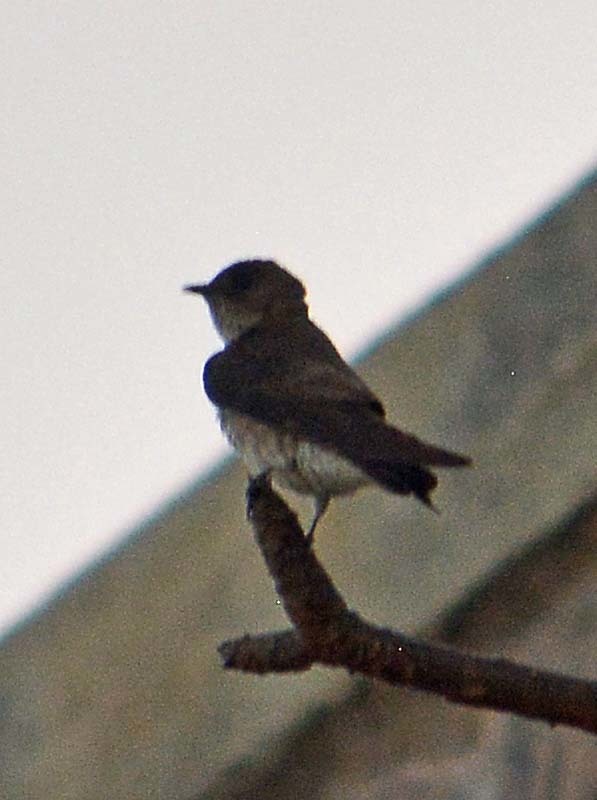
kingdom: Animalia
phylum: Chordata
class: Aves
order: Passeriformes
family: Hirundinidae
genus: Progne
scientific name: Progne chalybea
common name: Grey-breasted martin
